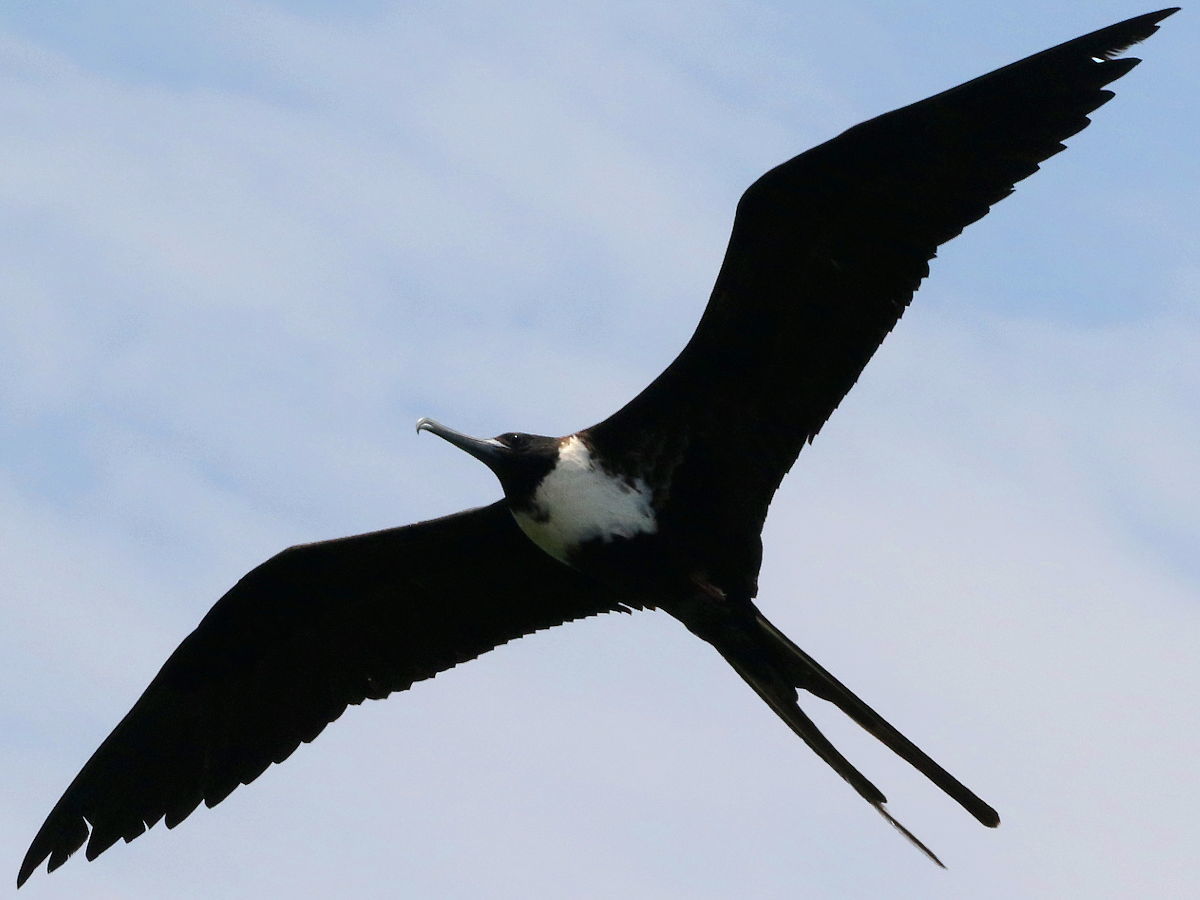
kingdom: Animalia
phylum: Chordata
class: Aves
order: Suliformes
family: Fregatidae
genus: Fregata
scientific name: Fregata magnificens
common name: Magnificent frigatebird
